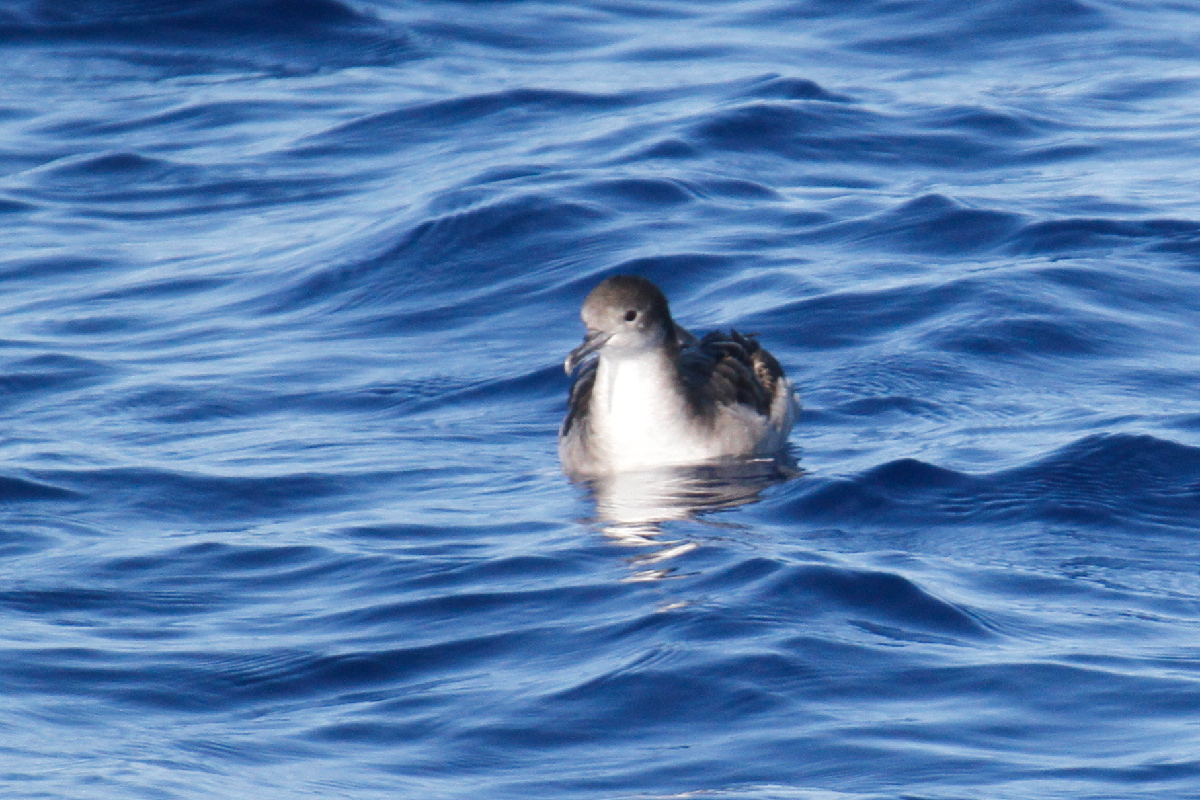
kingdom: Animalia
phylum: Chordata
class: Aves
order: Procellariiformes
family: Procellariidae
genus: Puffinus
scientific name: Puffinus pacificus
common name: Wedge-tailed shearwater
